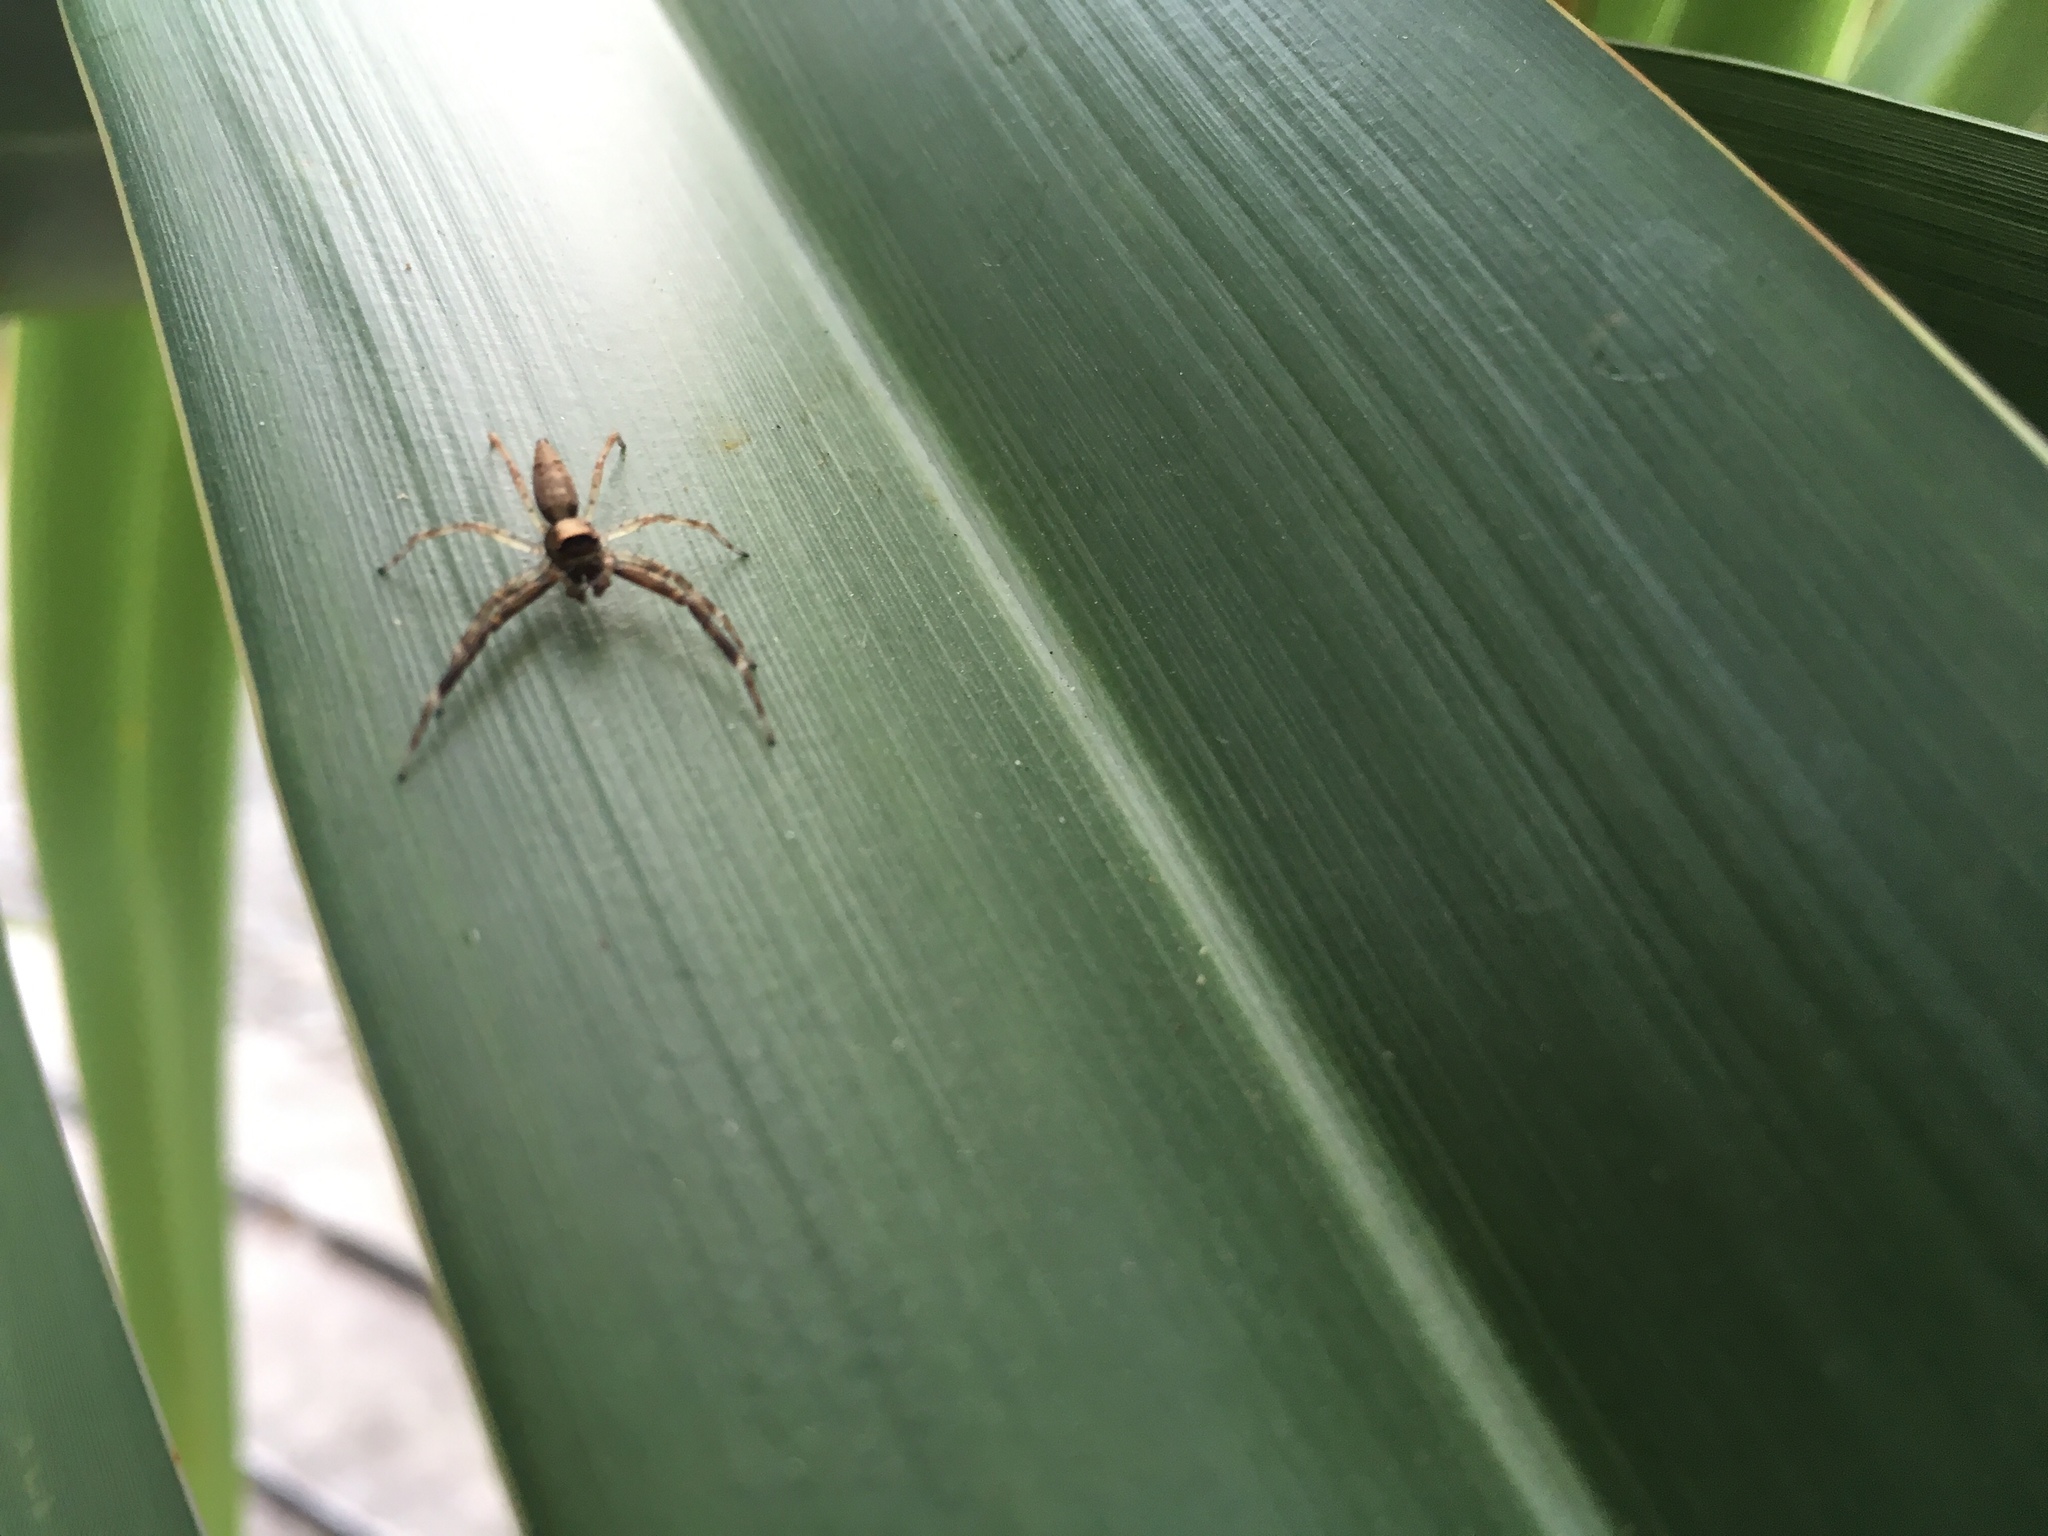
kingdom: Animalia
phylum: Arthropoda
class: Arachnida
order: Araneae
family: Salticidae
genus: Helpis
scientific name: Helpis minitabunda
